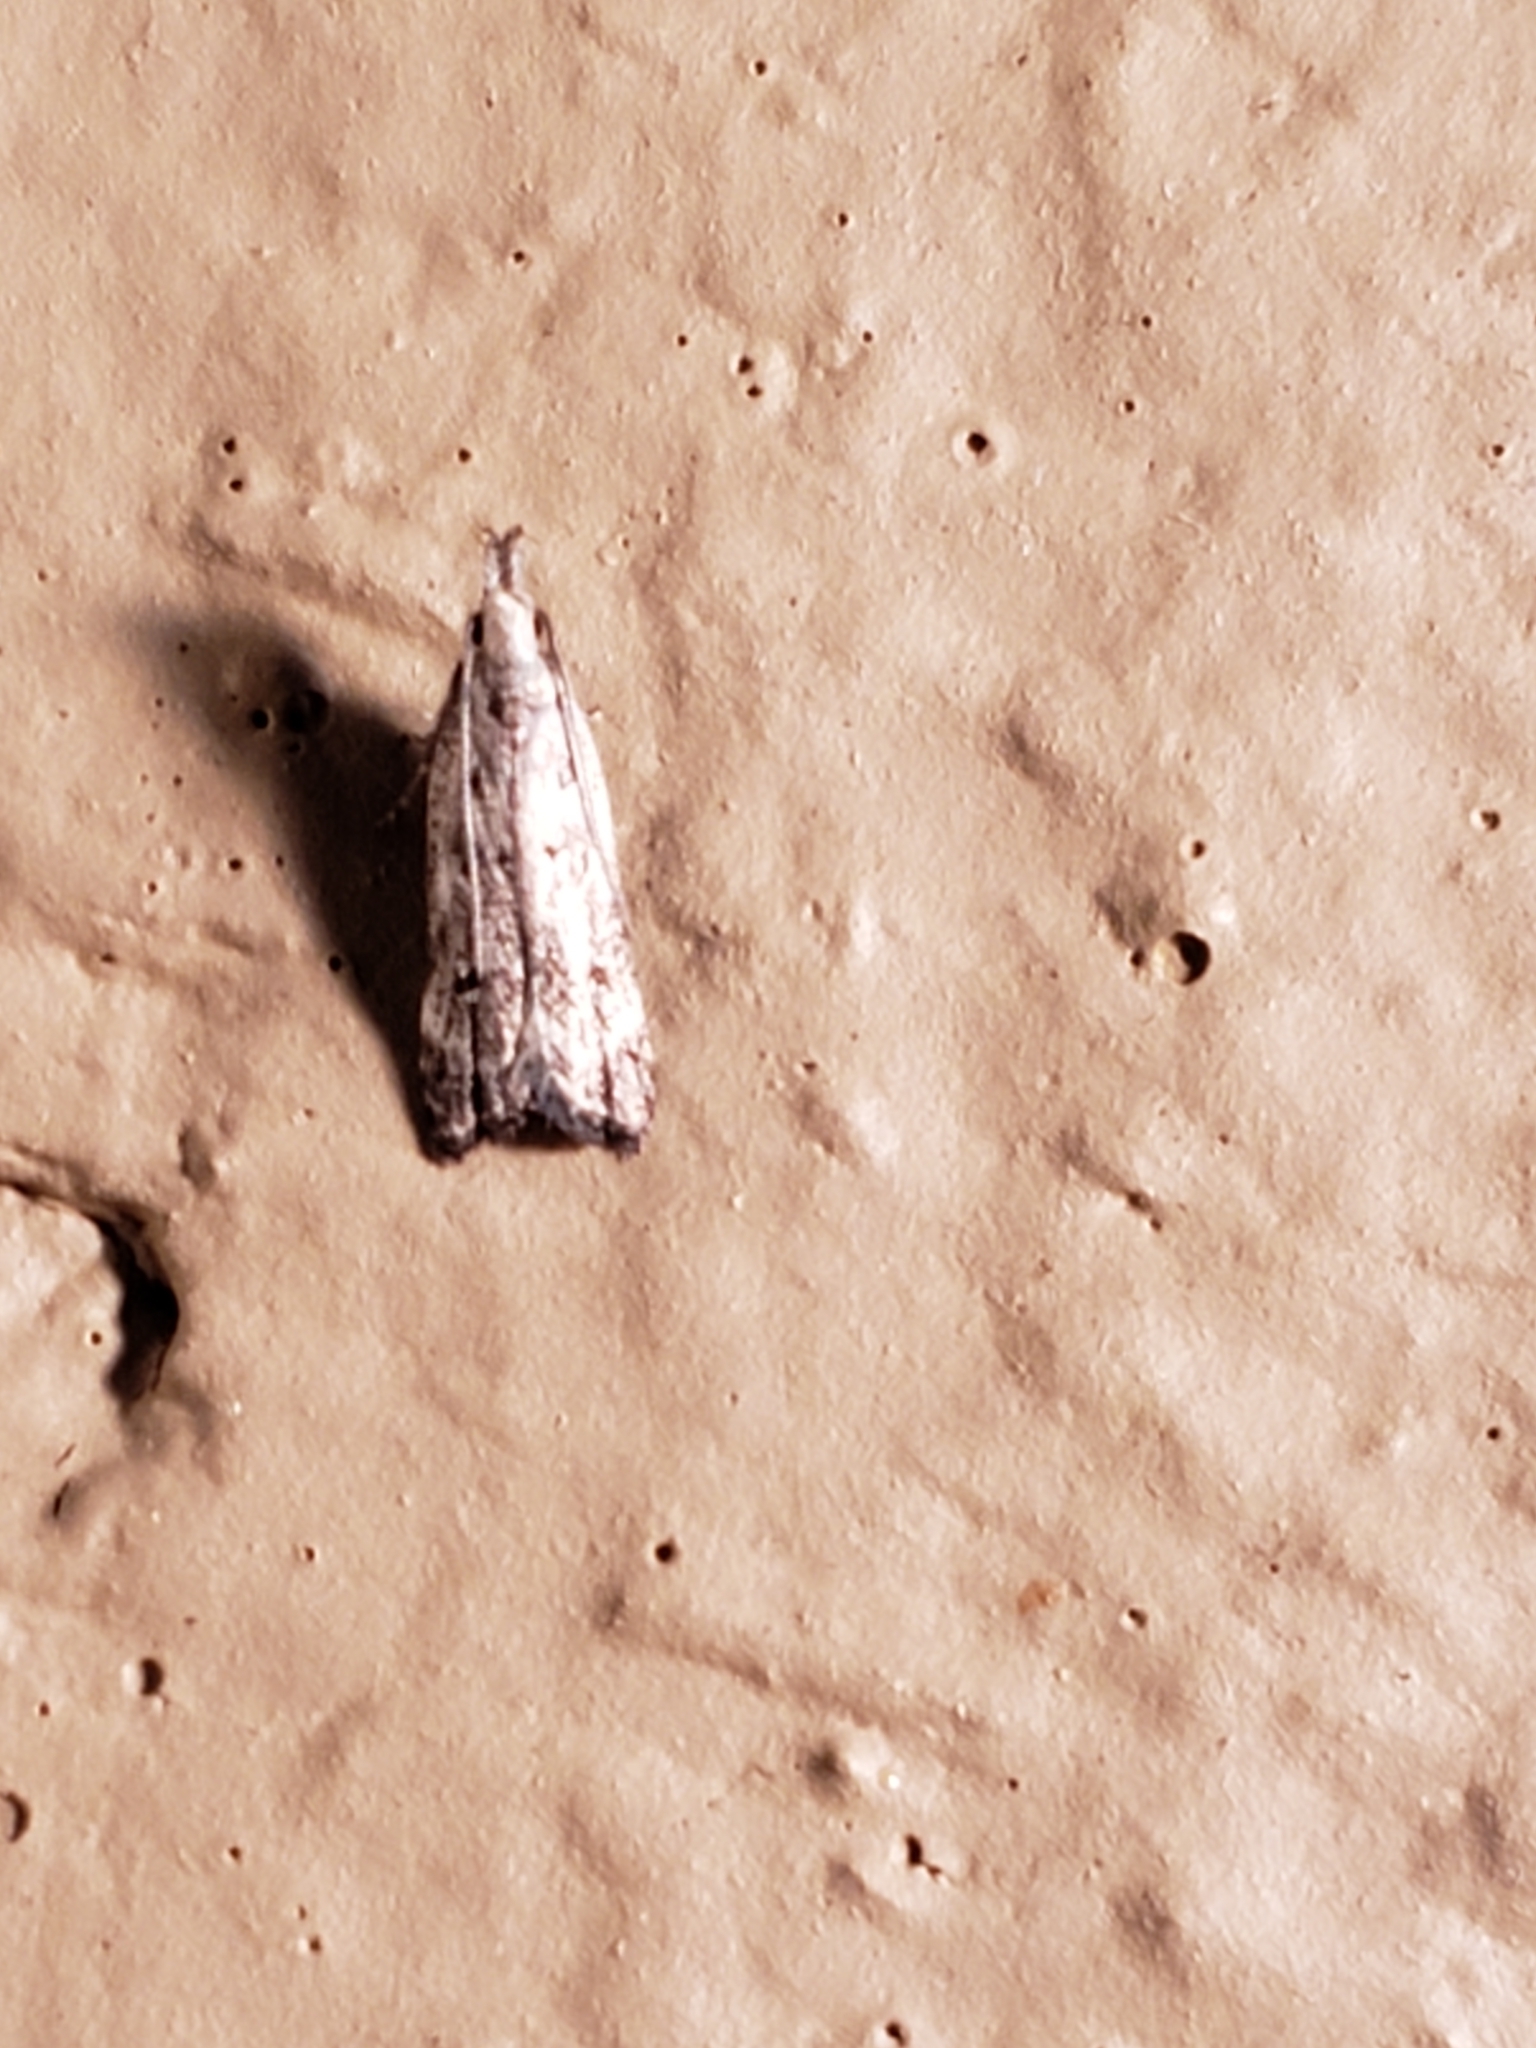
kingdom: Animalia
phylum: Arthropoda
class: Insecta
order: Lepidoptera
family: Gelechiidae
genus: Dichomeris
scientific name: Dichomeris kimballi
